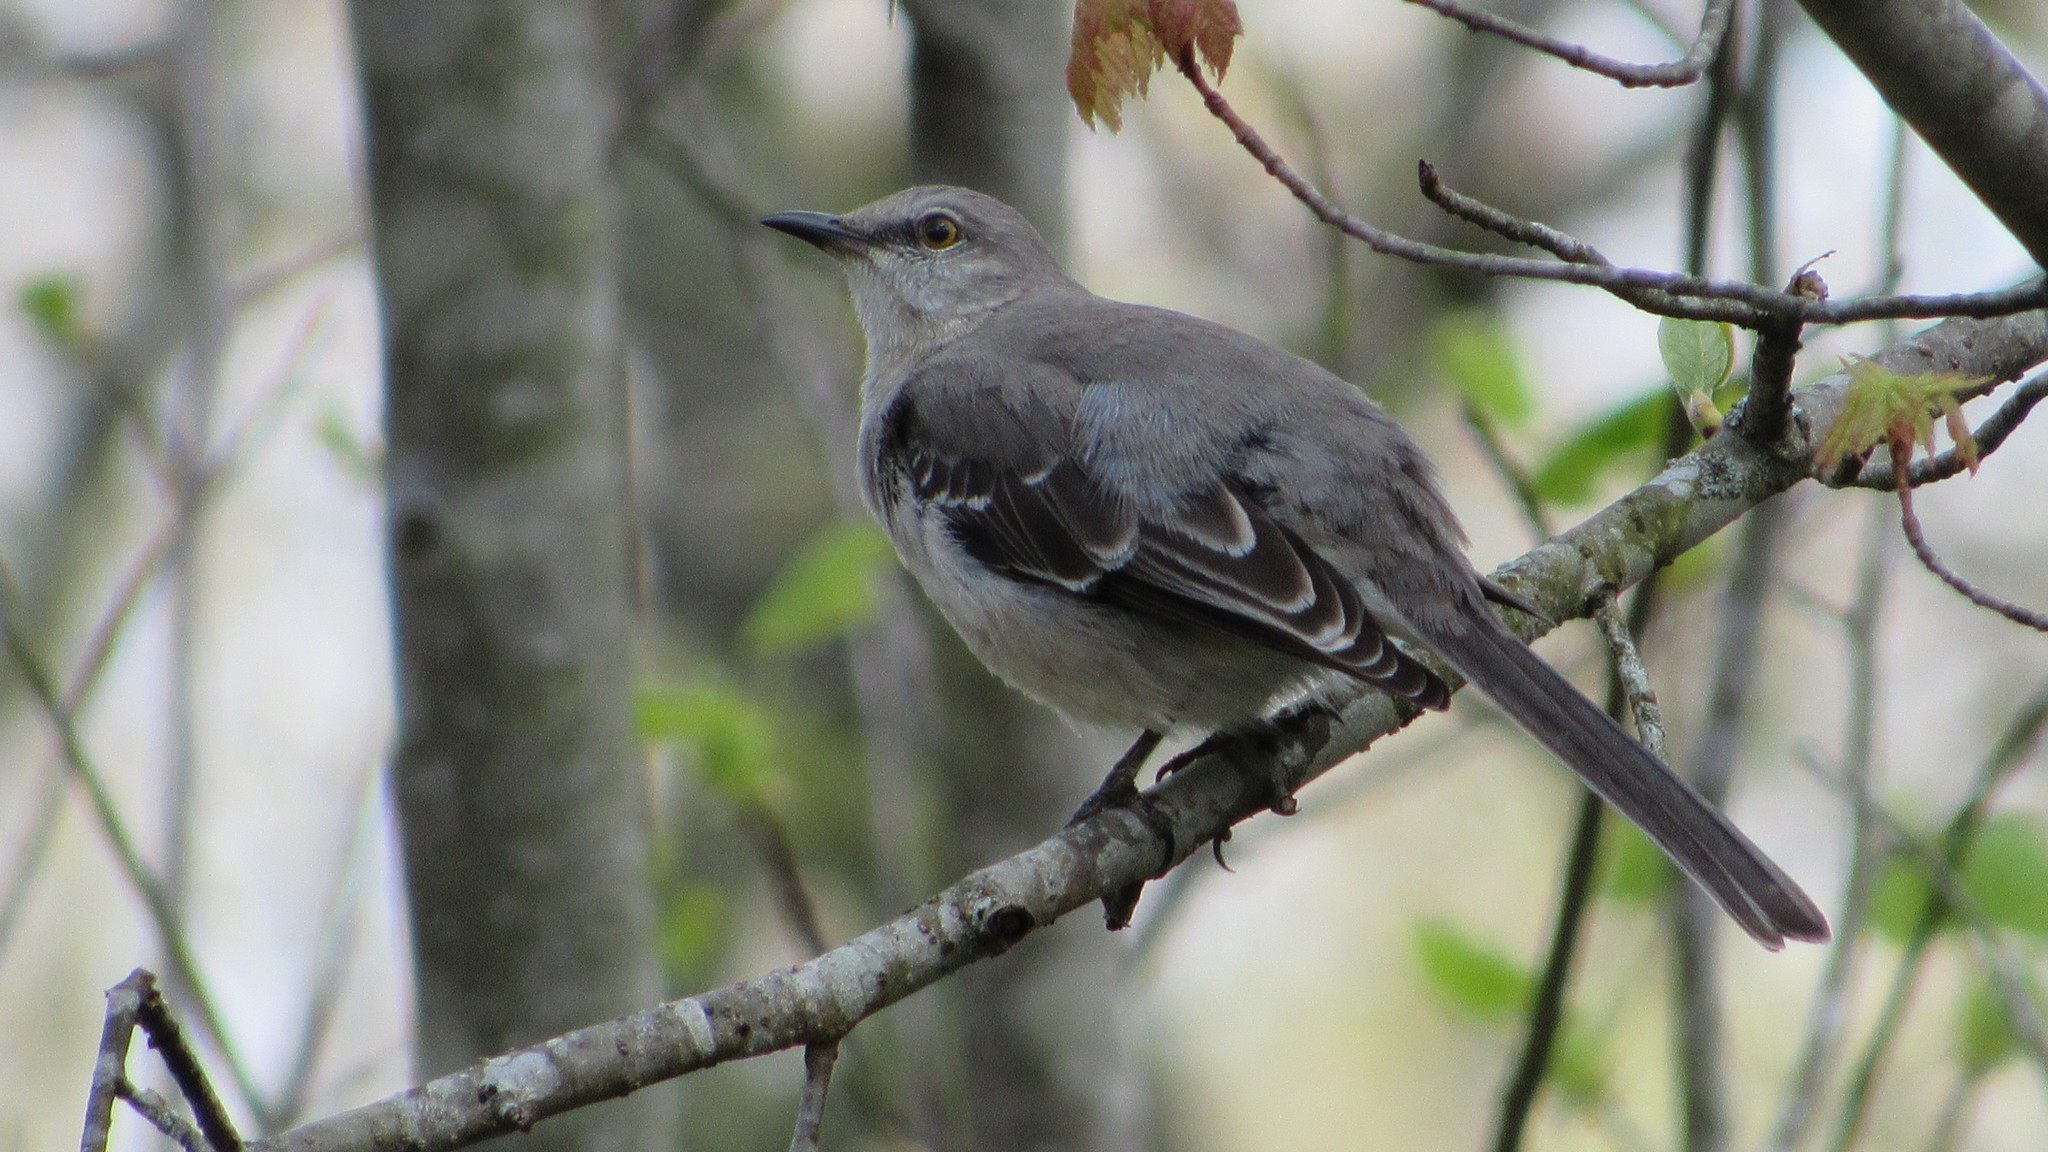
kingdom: Animalia
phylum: Chordata
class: Aves
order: Passeriformes
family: Mimidae
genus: Mimus
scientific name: Mimus polyglottos
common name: Northern mockingbird
